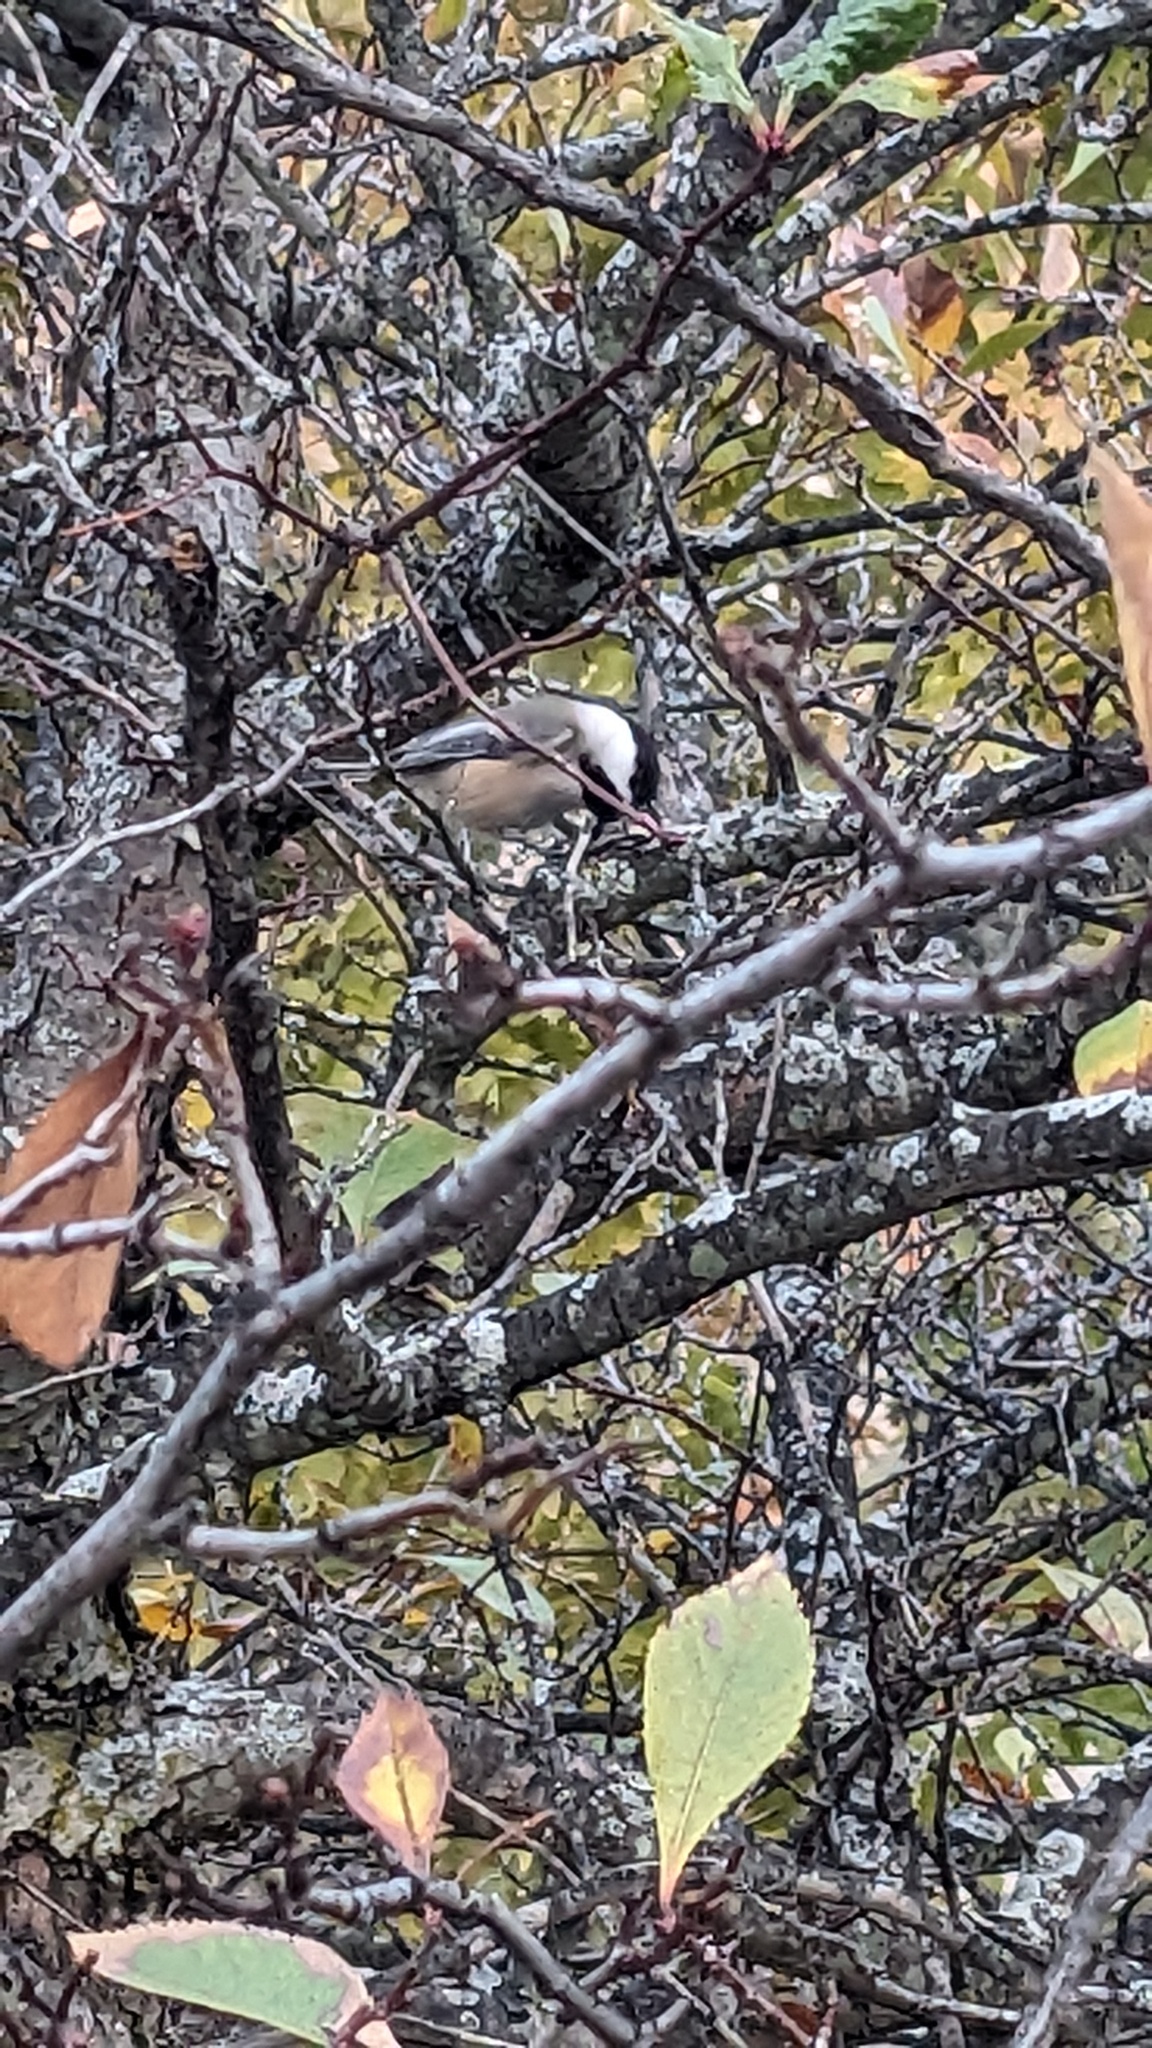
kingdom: Animalia
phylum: Chordata
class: Aves
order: Passeriformes
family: Paridae
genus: Poecile
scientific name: Poecile atricapillus
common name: Black-capped chickadee
